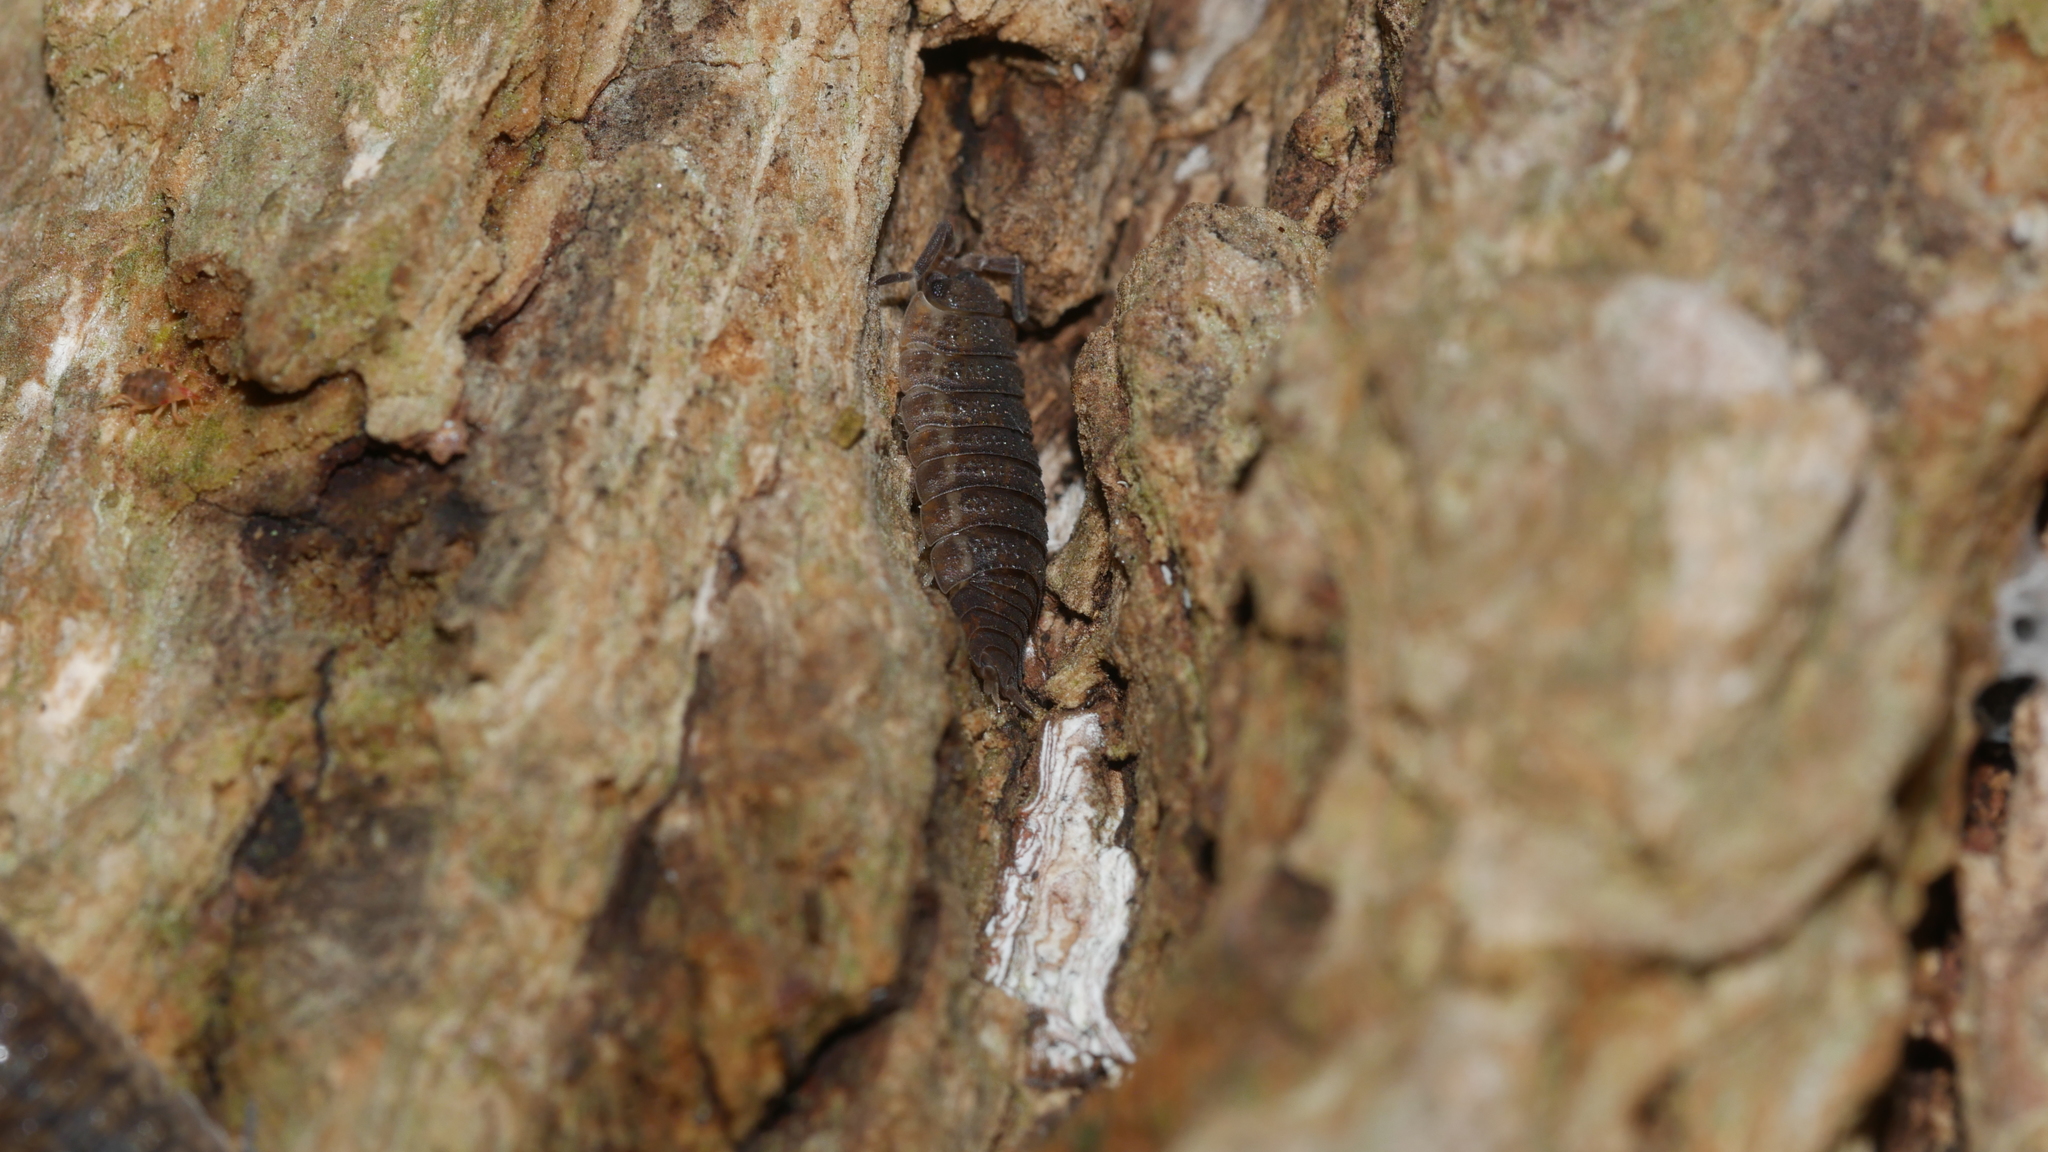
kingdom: Animalia
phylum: Arthropoda
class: Malacostraca
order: Isopoda
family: Porcellionidae
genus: Porcellio
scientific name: Porcellio scaber
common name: Common rough woodlouse
